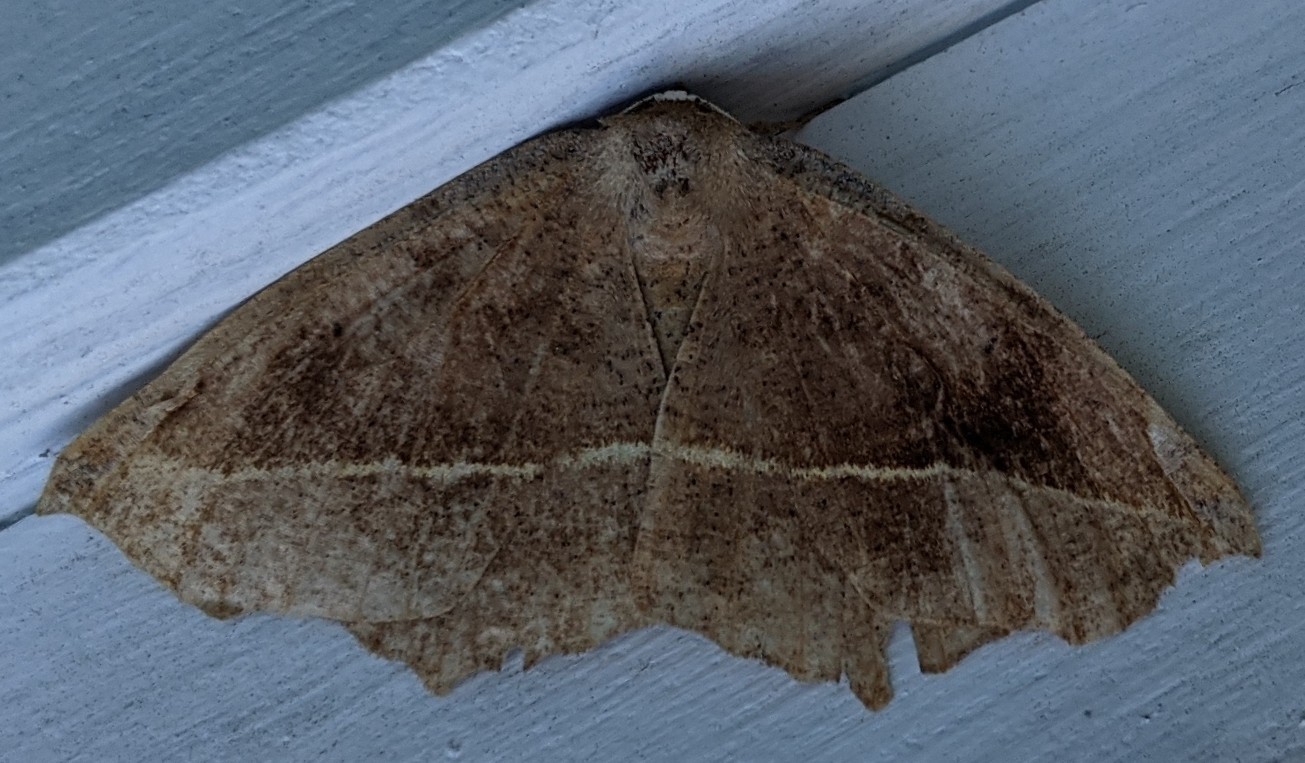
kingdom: Animalia
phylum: Arthropoda
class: Insecta
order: Lepidoptera
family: Geometridae
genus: Eutrapela
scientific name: Eutrapela clemataria
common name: Curved-toothed geometer
